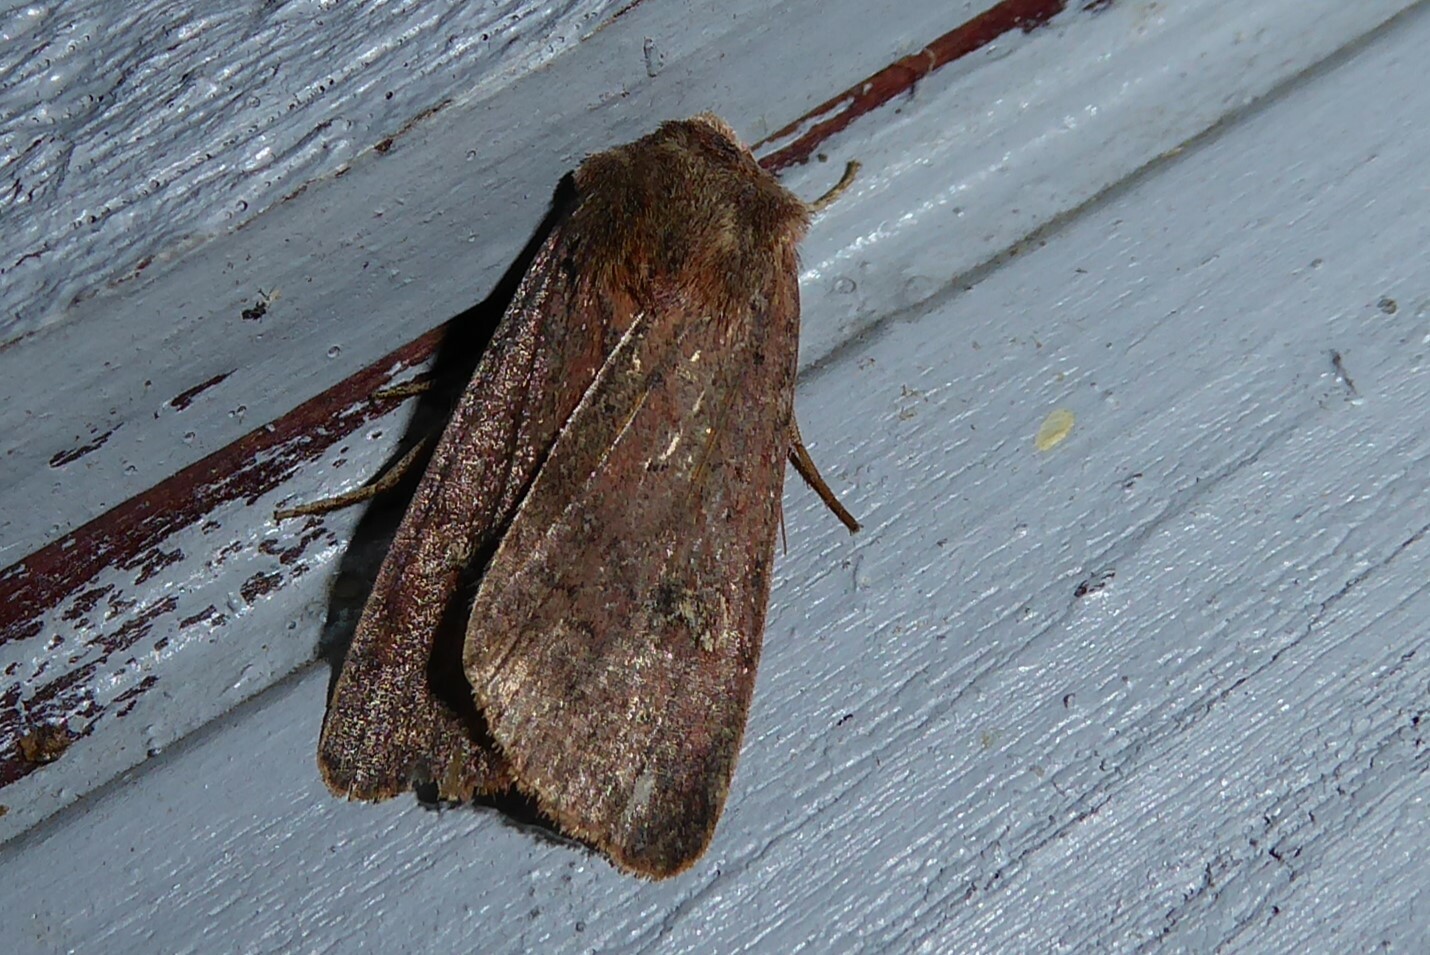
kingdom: Animalia
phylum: Arthropoda
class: Insecta
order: Lepidoptera
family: Noctuidae
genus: Diarsia
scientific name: Diarsia intermixta
